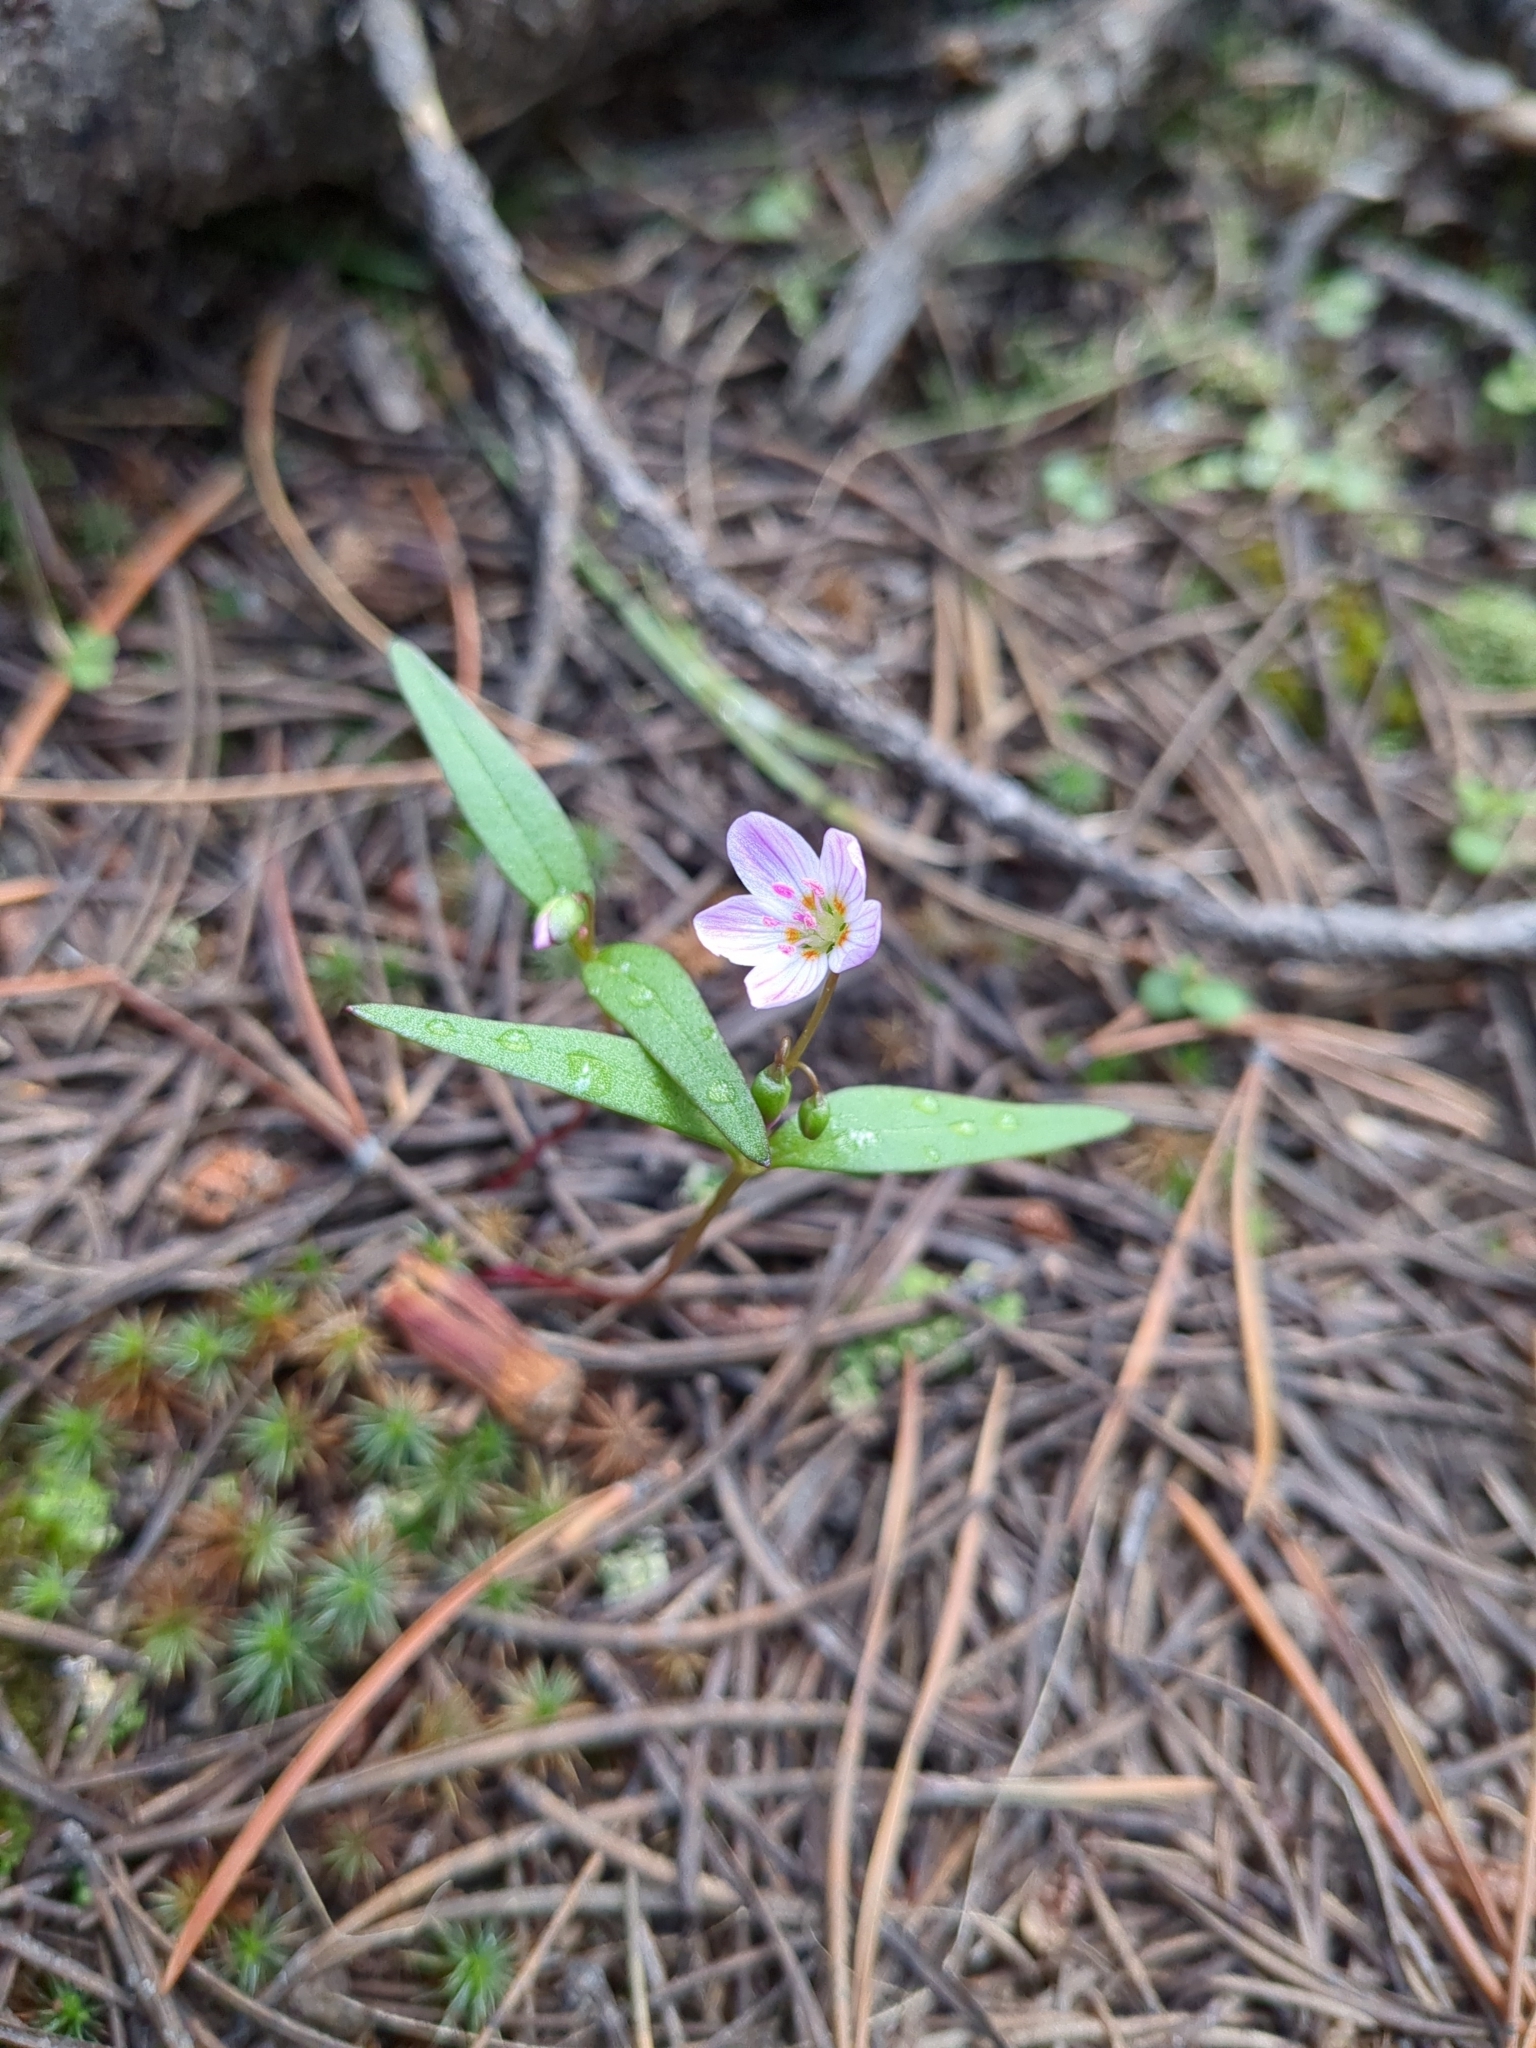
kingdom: Plantae
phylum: Tracheophyta
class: Magnoliopsida
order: Caryophyllales
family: Montiaceae
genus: Claytonia
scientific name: Claytonia lanceolata
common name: Western spring-beauty
